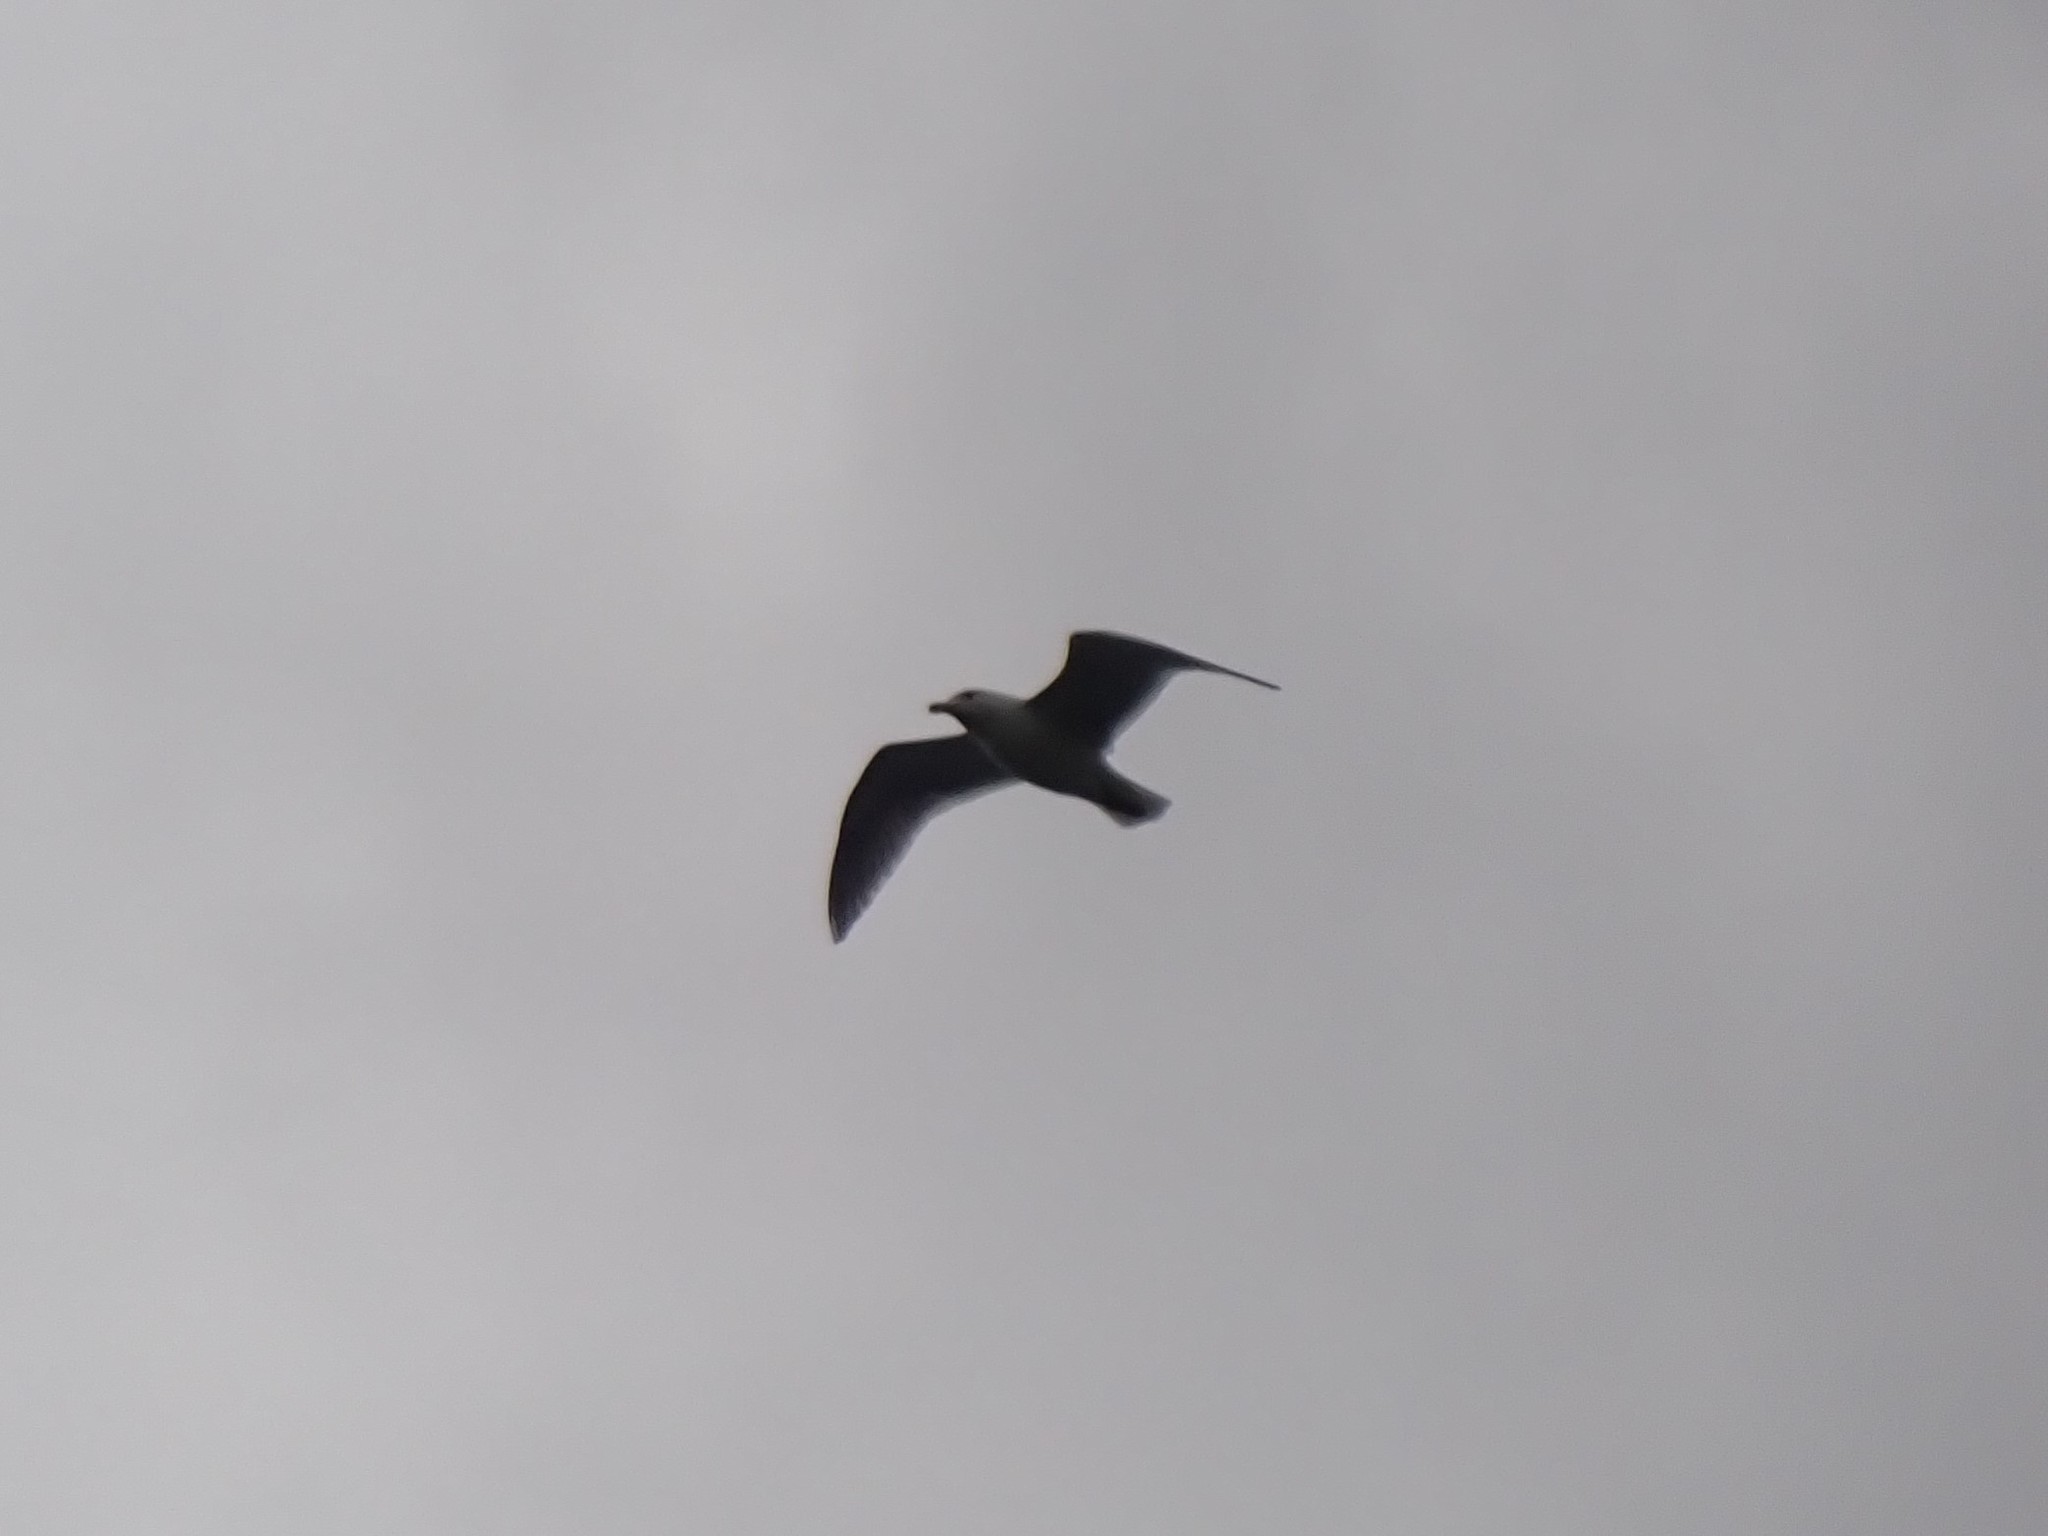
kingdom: Animalia
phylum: Chordata
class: Aves
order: Charadriiformes
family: Laridae
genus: Larus
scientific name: Larus
